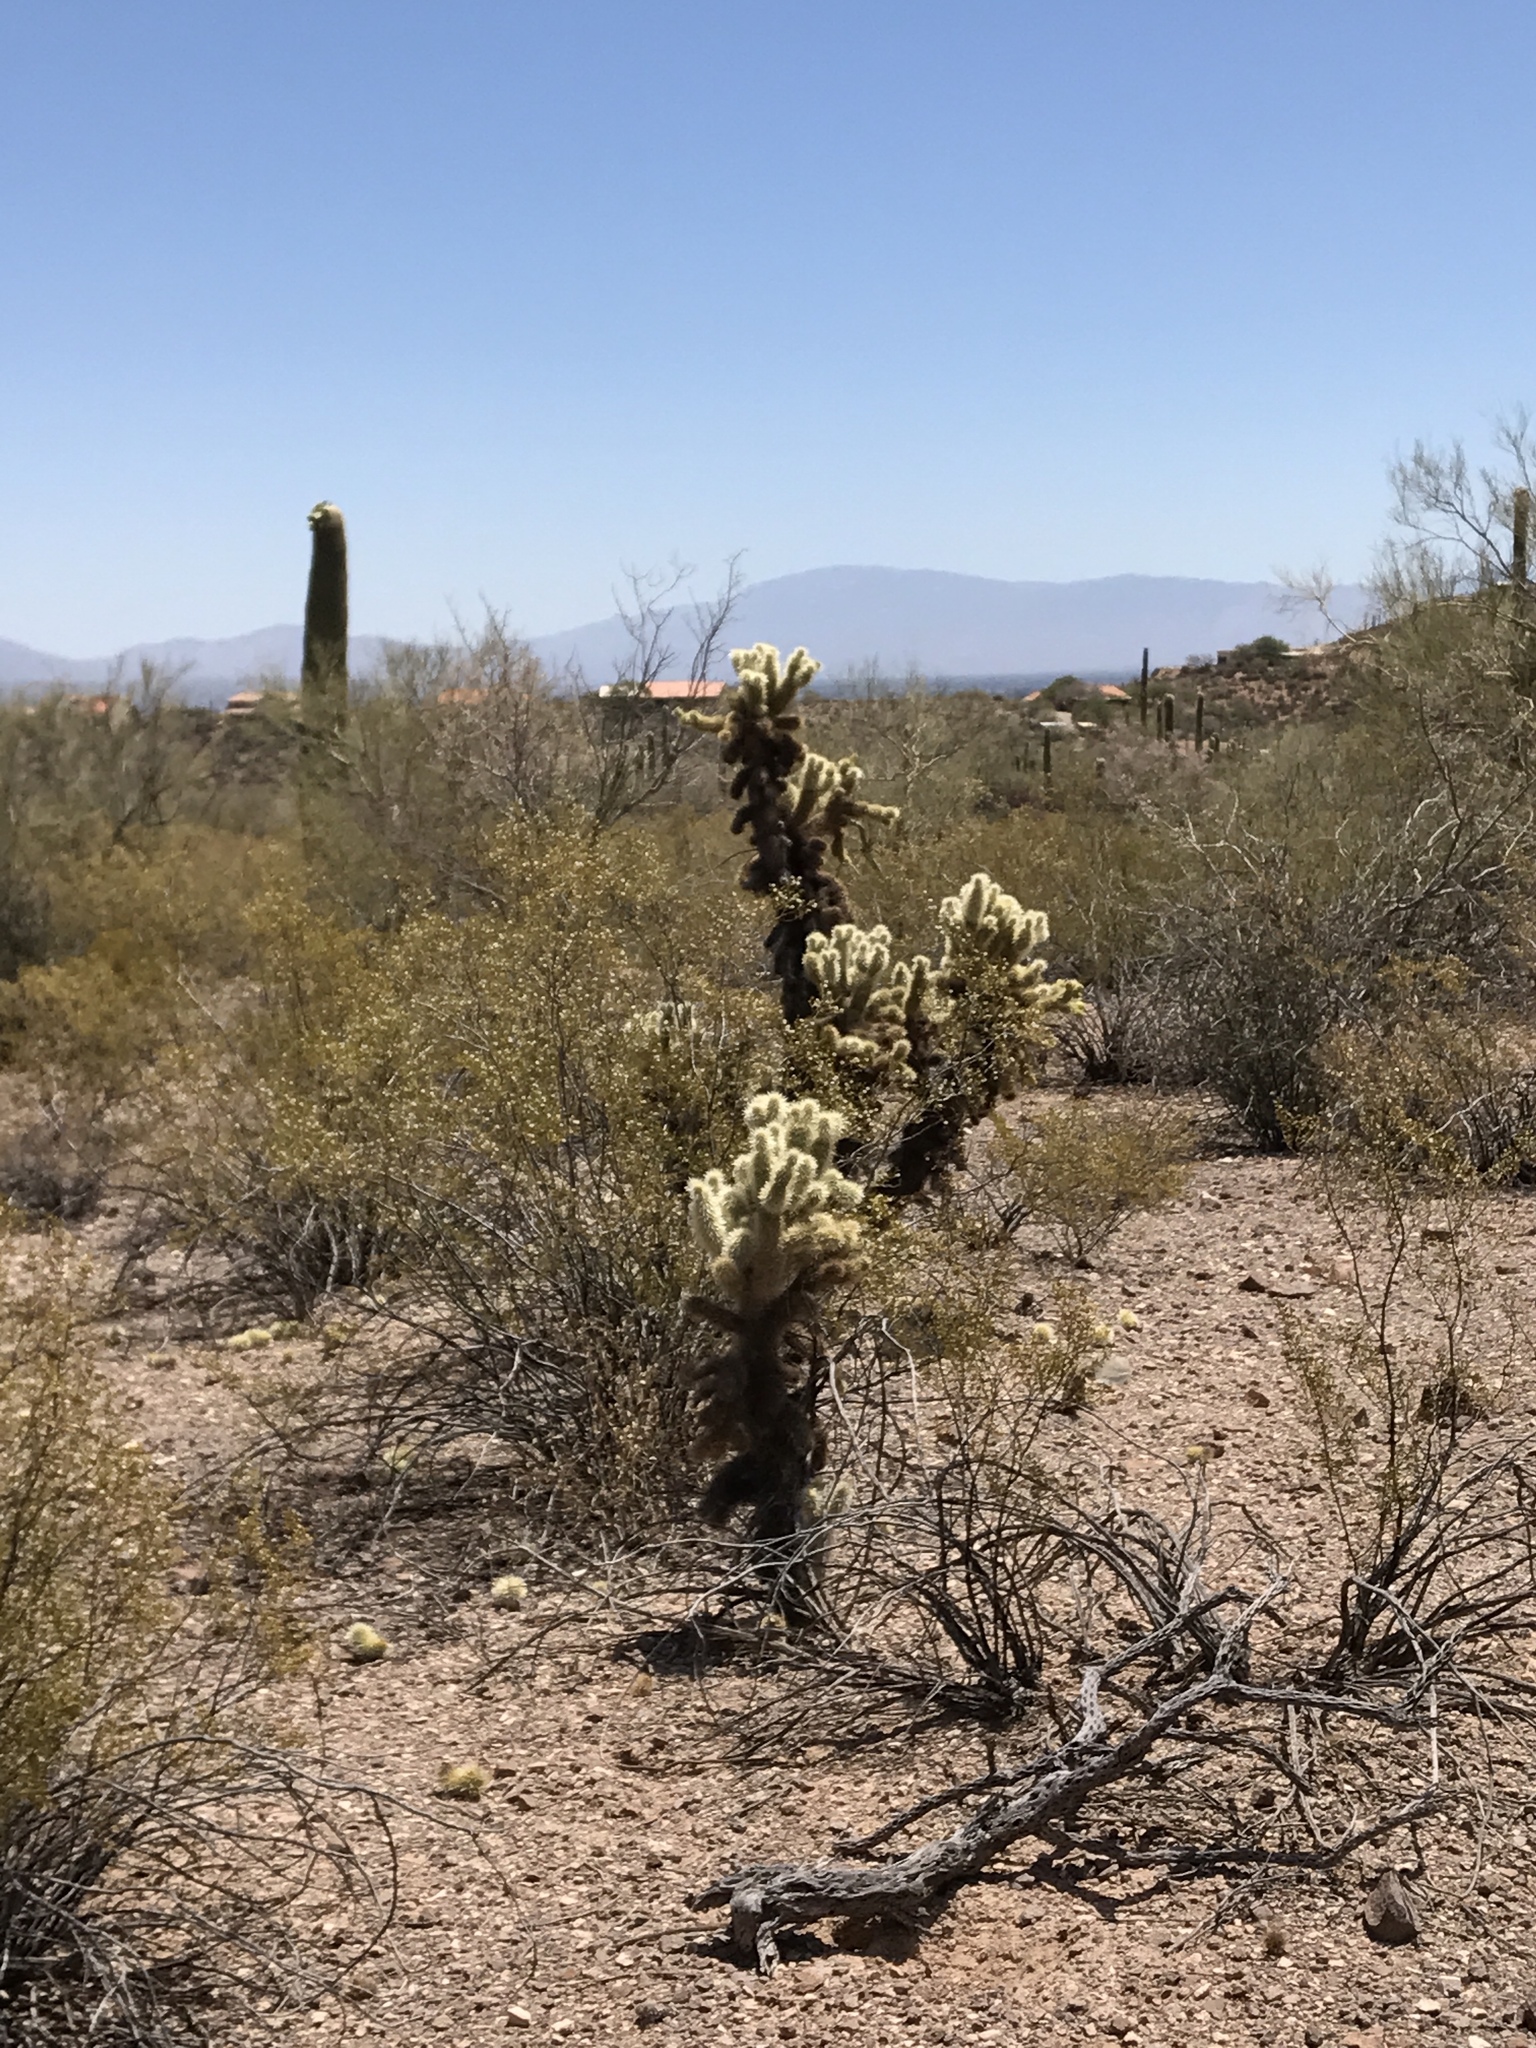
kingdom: Plantae
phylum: Tracheophyta
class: Magnoliopsida
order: Caryophyllales
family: Cactaceae
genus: Cylindropuntia
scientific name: Cylindropuntia fosbergii
